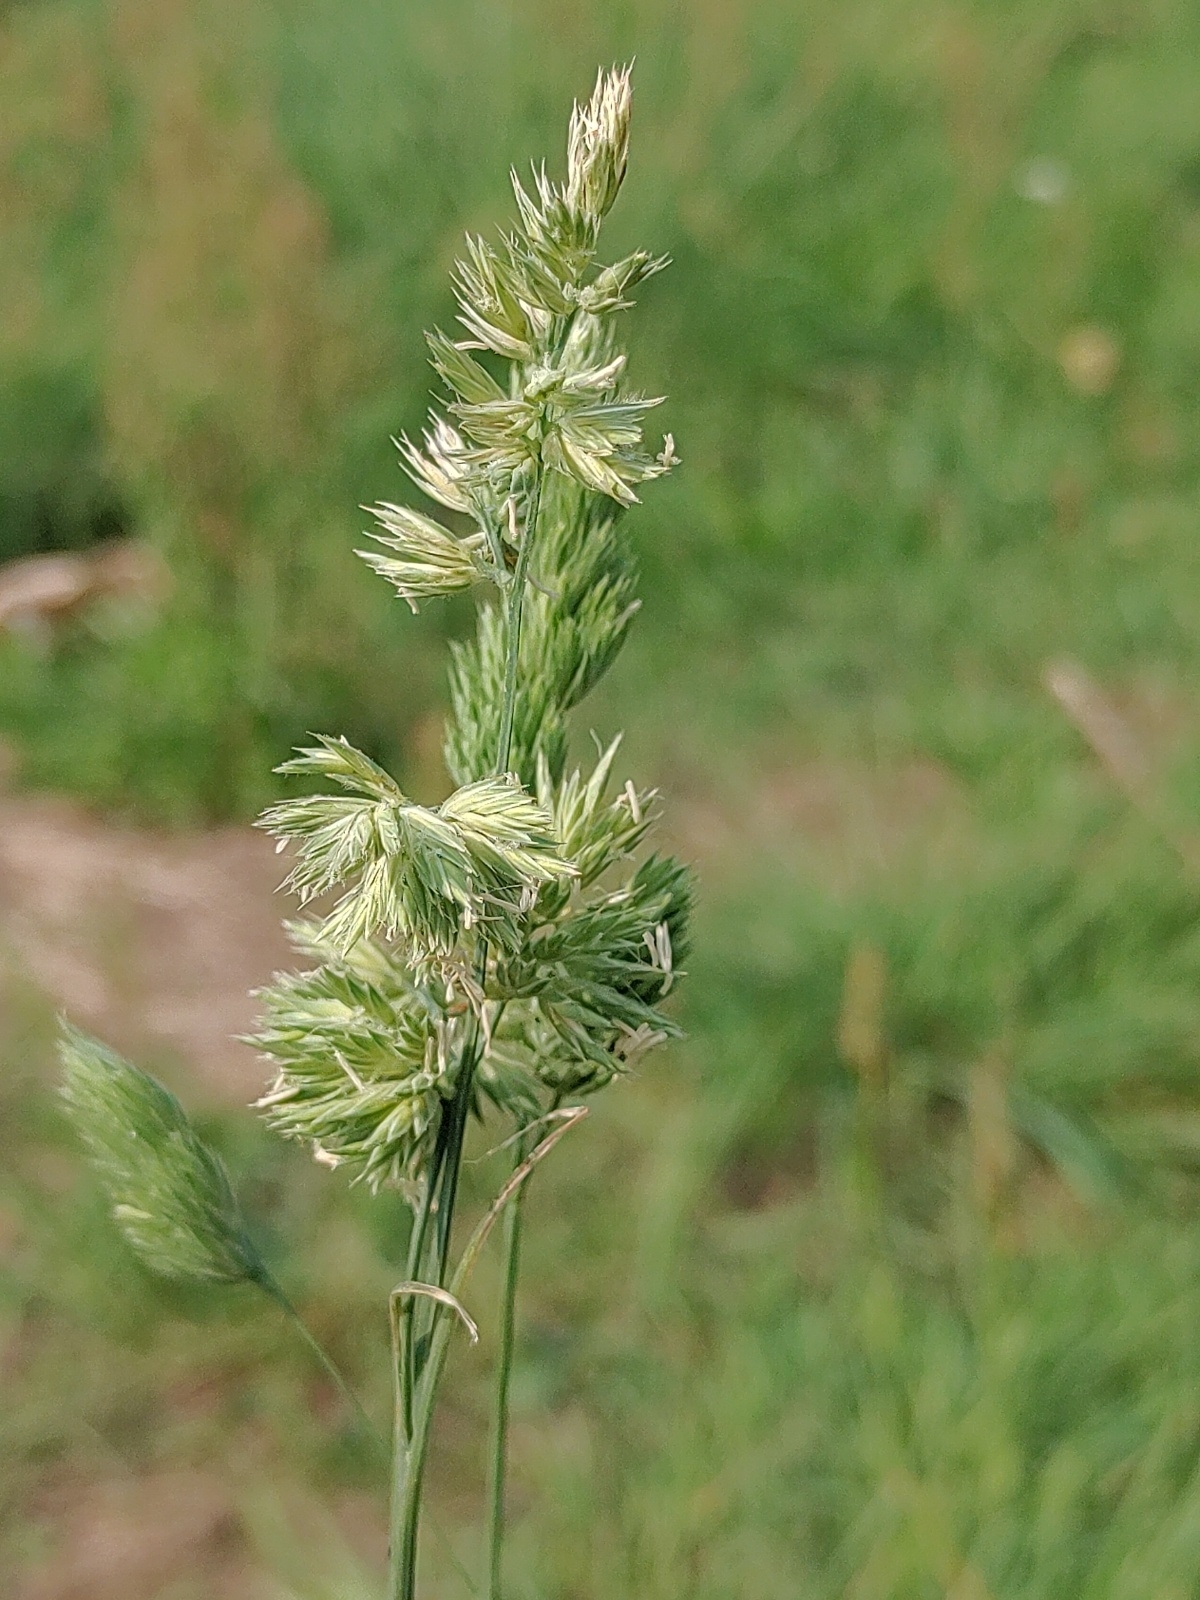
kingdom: Plantae
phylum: Tracheophyta
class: Liliopsida
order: Poales
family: Poaceae
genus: Dactylis
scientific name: Dactylis glomerata
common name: Orchardgrass
